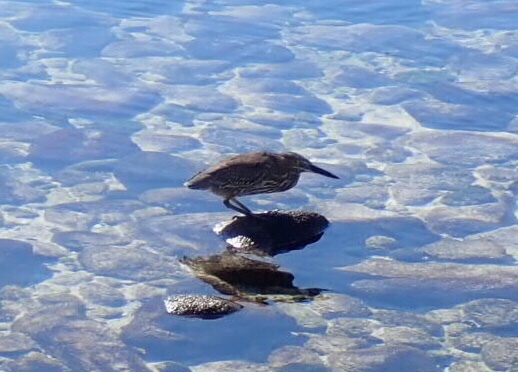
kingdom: Animalia
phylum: Chordata
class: Aves
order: Pelecaniformes
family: Ardeidae
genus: Butorides
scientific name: Butorides striata
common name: Striated heron
